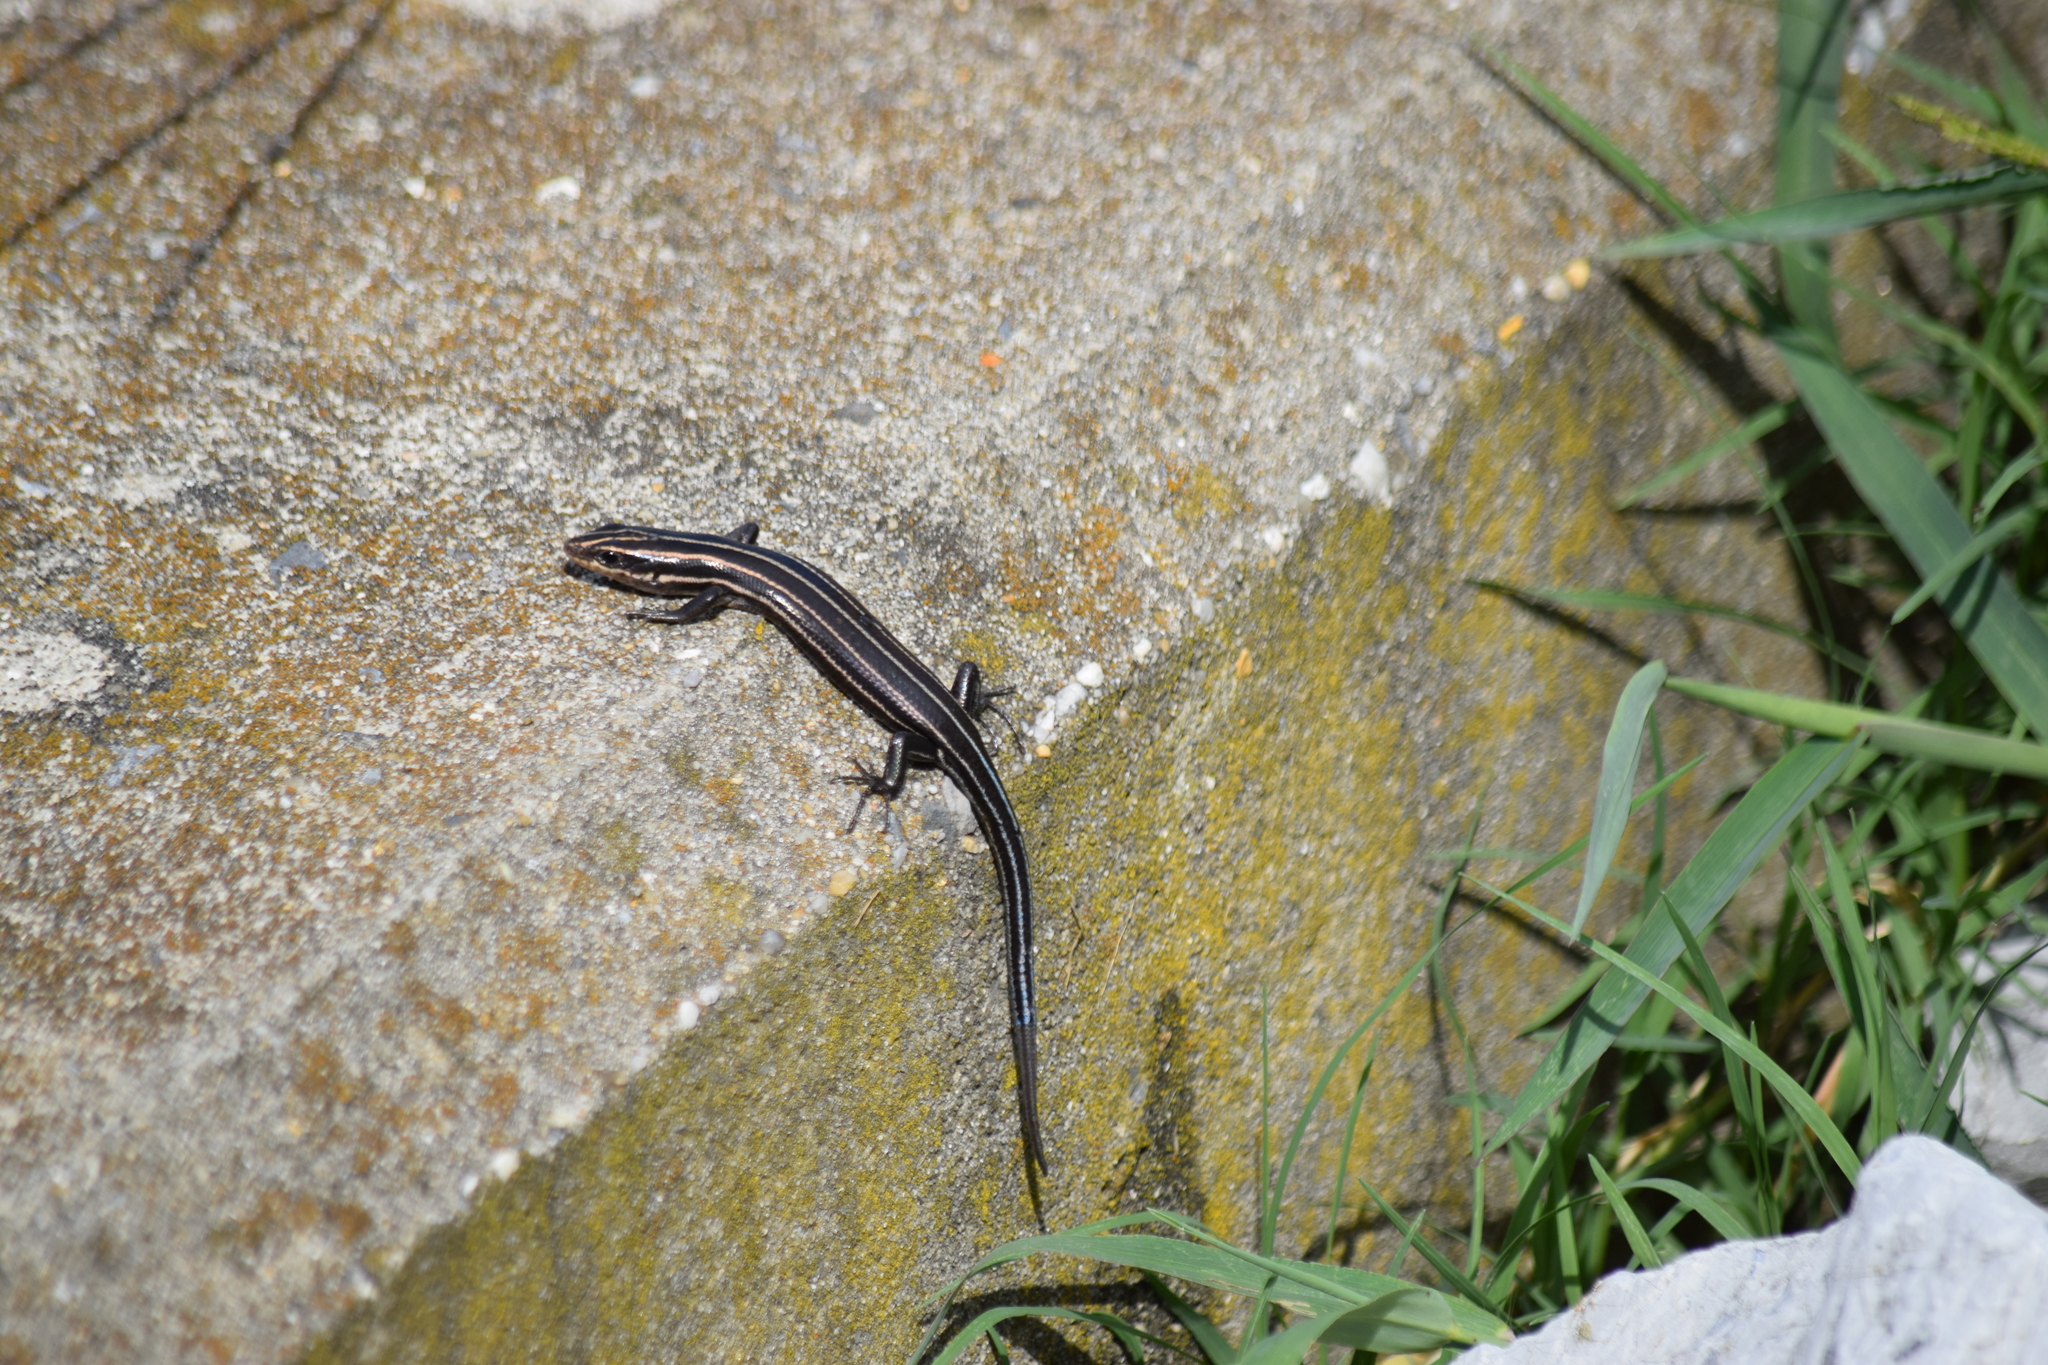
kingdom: Animalia
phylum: Chordata
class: Squamata
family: Scincidae
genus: Plestiodon
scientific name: Plestiodon fasciatus
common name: Five-lined skink
